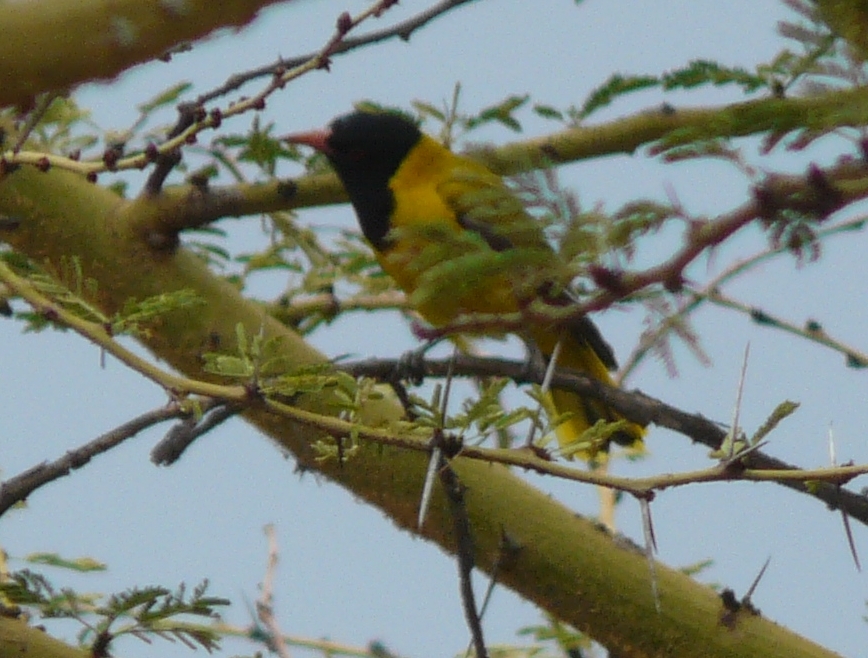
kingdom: Animalia
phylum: Chordata
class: Aves
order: Passeriformes
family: Oriolidae
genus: Oriolus
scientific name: Oriolus larvatus
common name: Black-headed oriole
